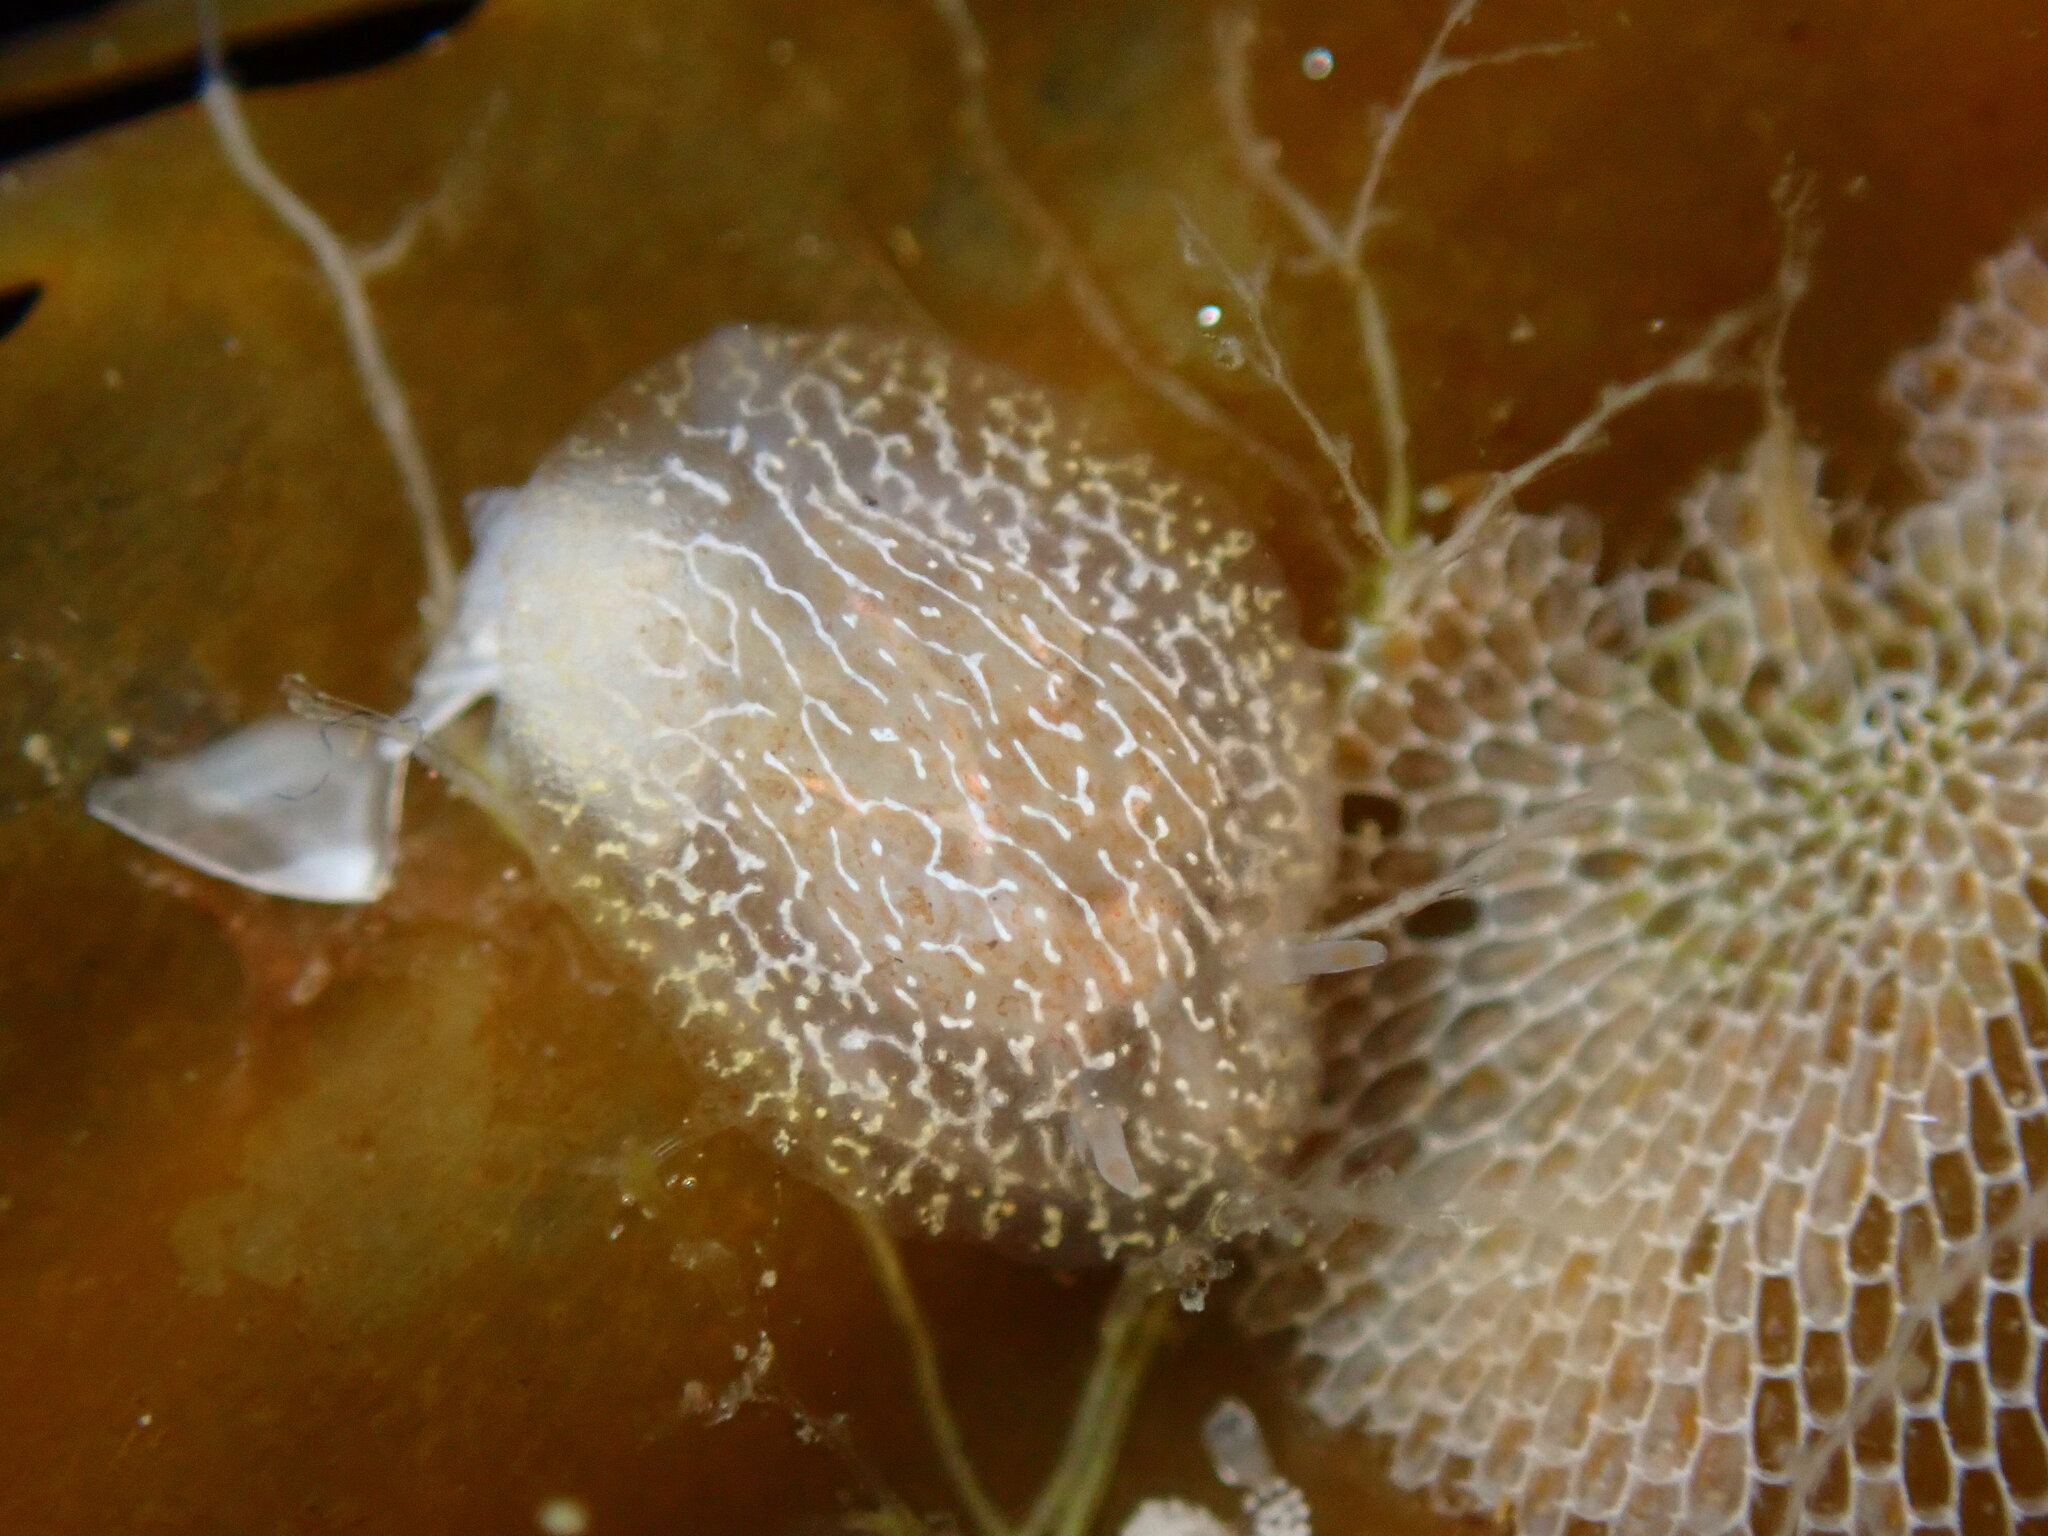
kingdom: Animalia
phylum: Mollusca
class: Gastropoda
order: Nudibranchia
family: Corambidae
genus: Corambe
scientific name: Corambe steinbergae
